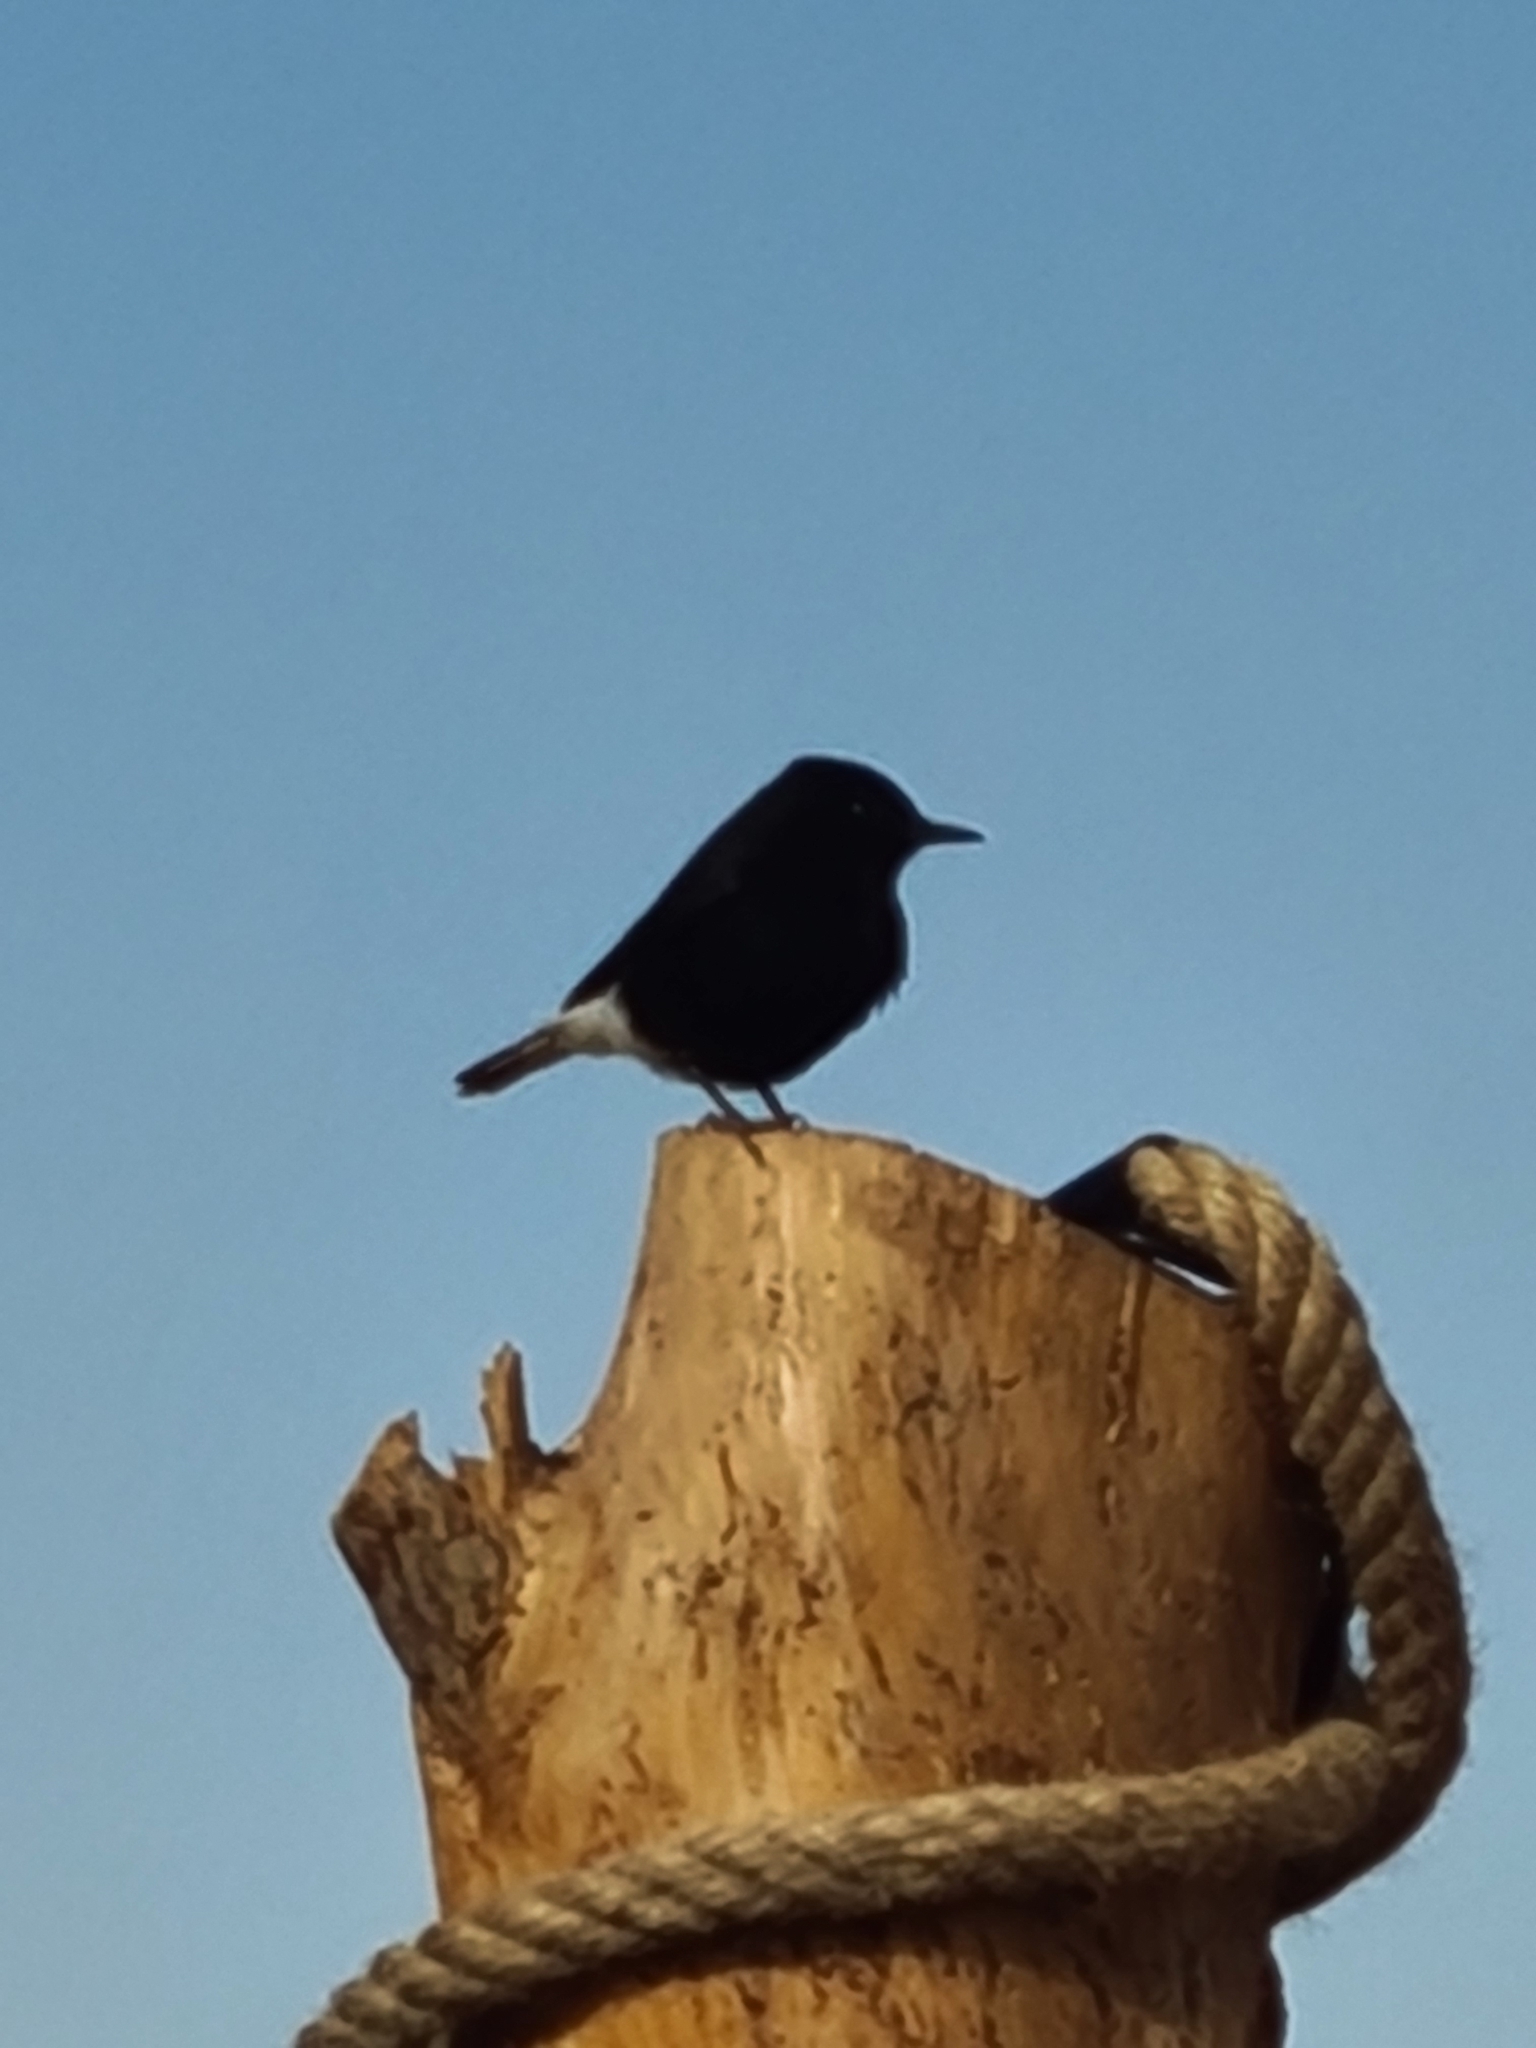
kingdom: Animalia
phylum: Chordata
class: Aves
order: Passeriformes
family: Muscicapidae
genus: Oenanthe
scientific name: Oenanthe leucopyga
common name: White-crowned wheatear
